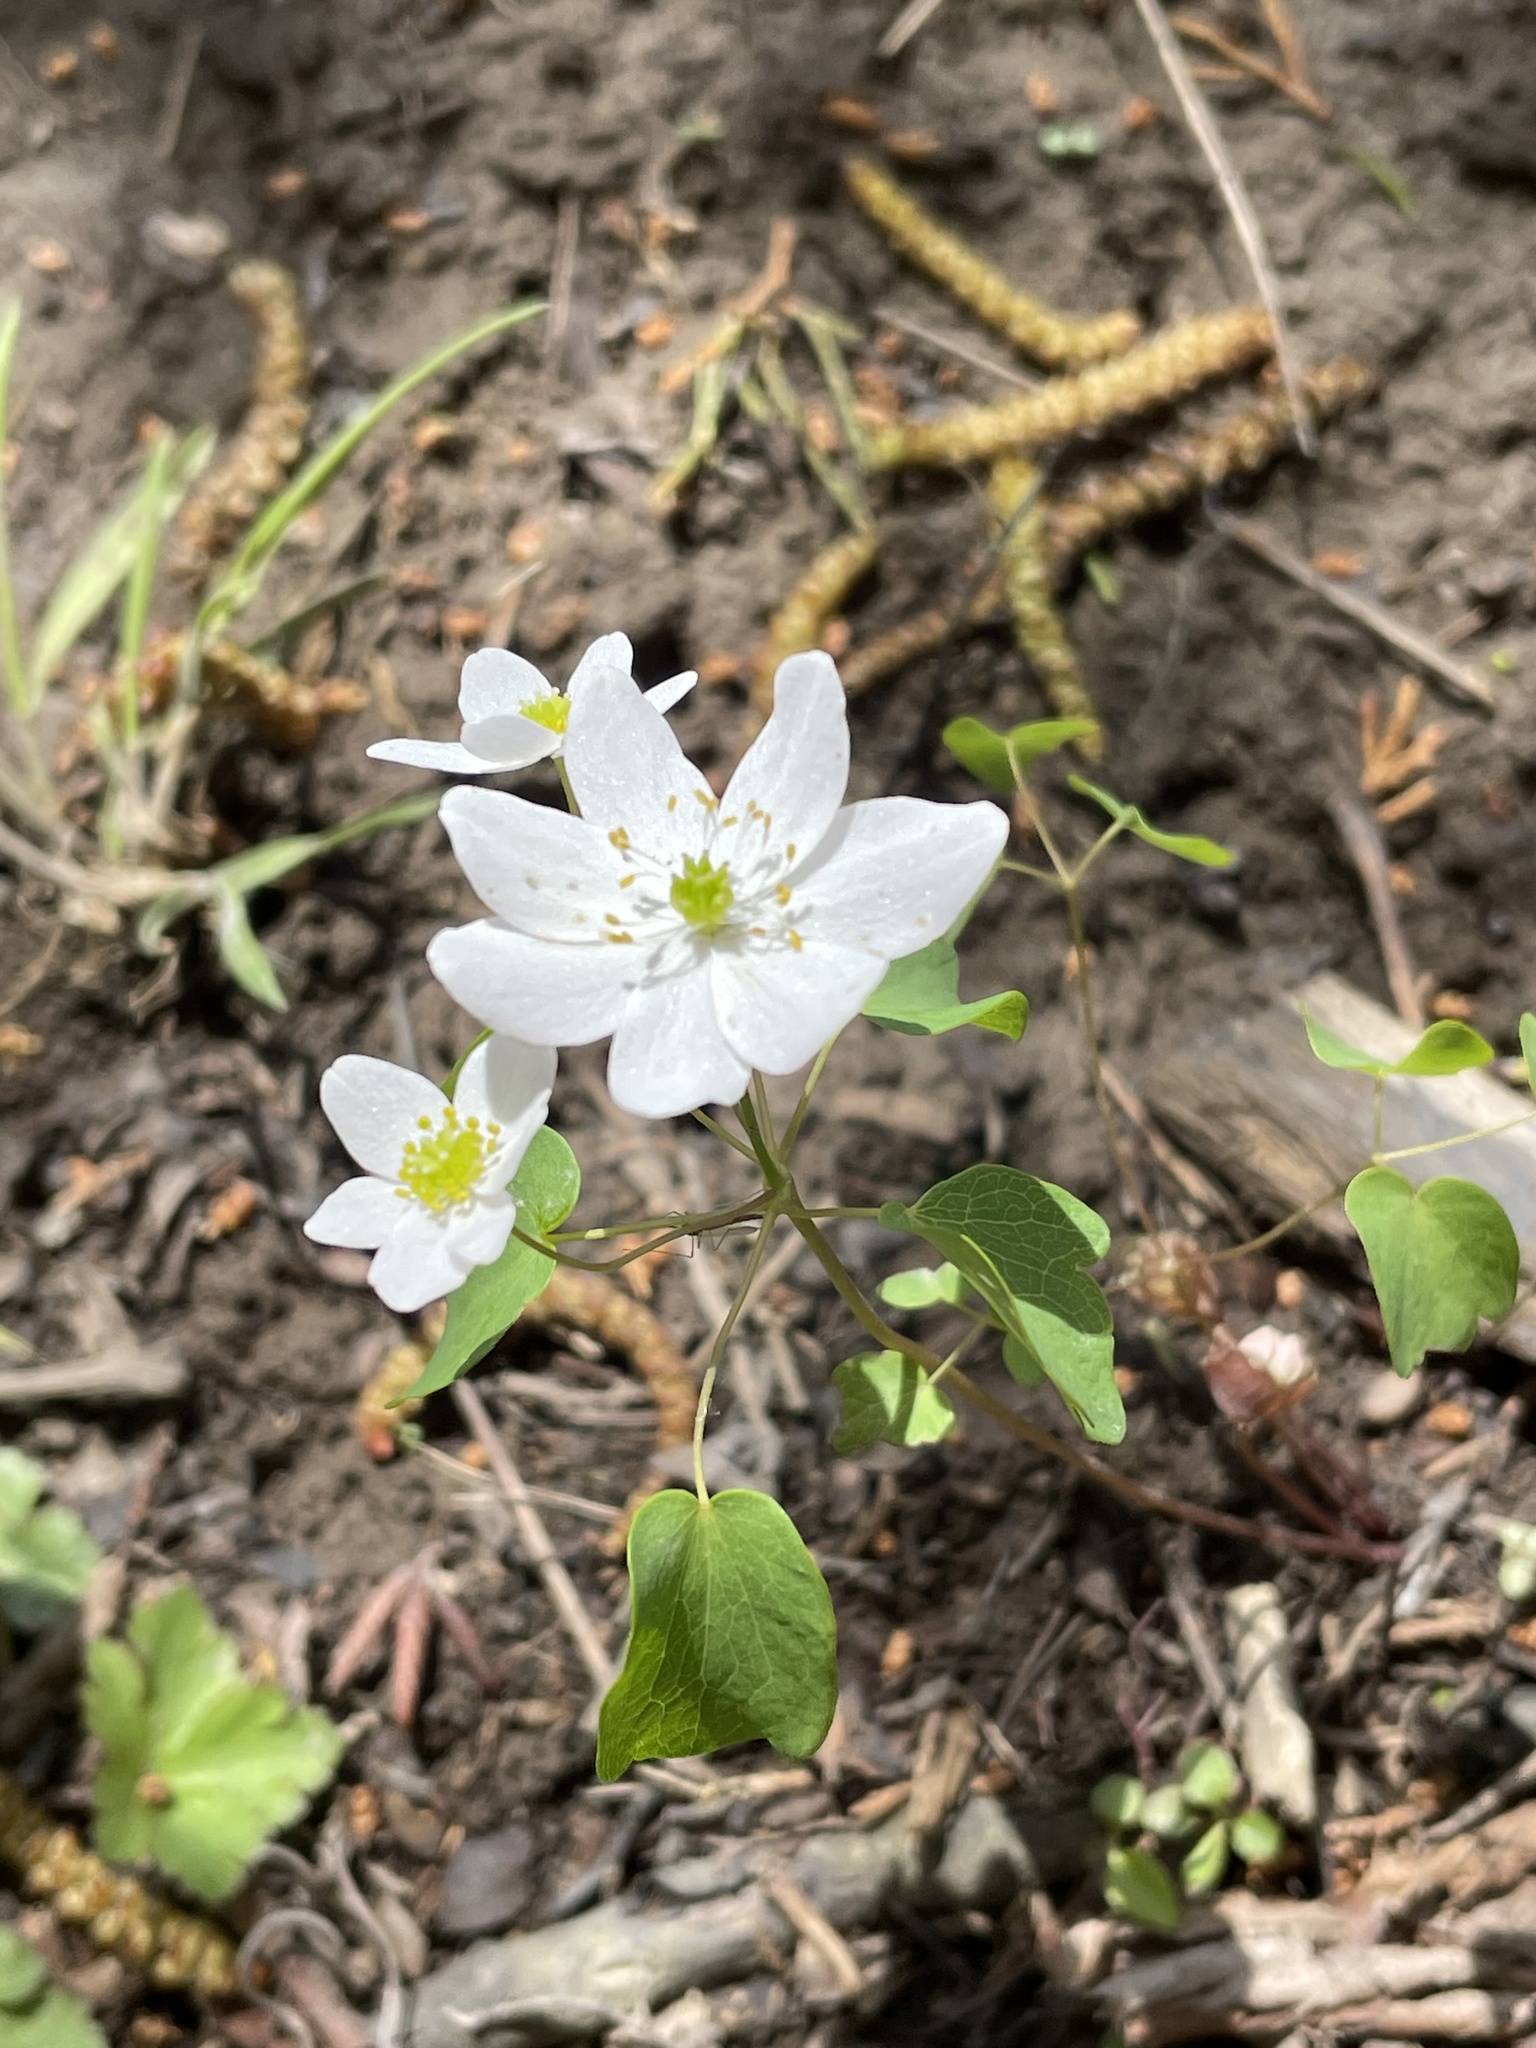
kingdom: Plantae
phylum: Tracheophyta
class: Magnoliopsida
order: Ranunculales
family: Ranunculaceae
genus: Thalictrum
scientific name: Thalictrum thalictroides
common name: Rue-anemone
